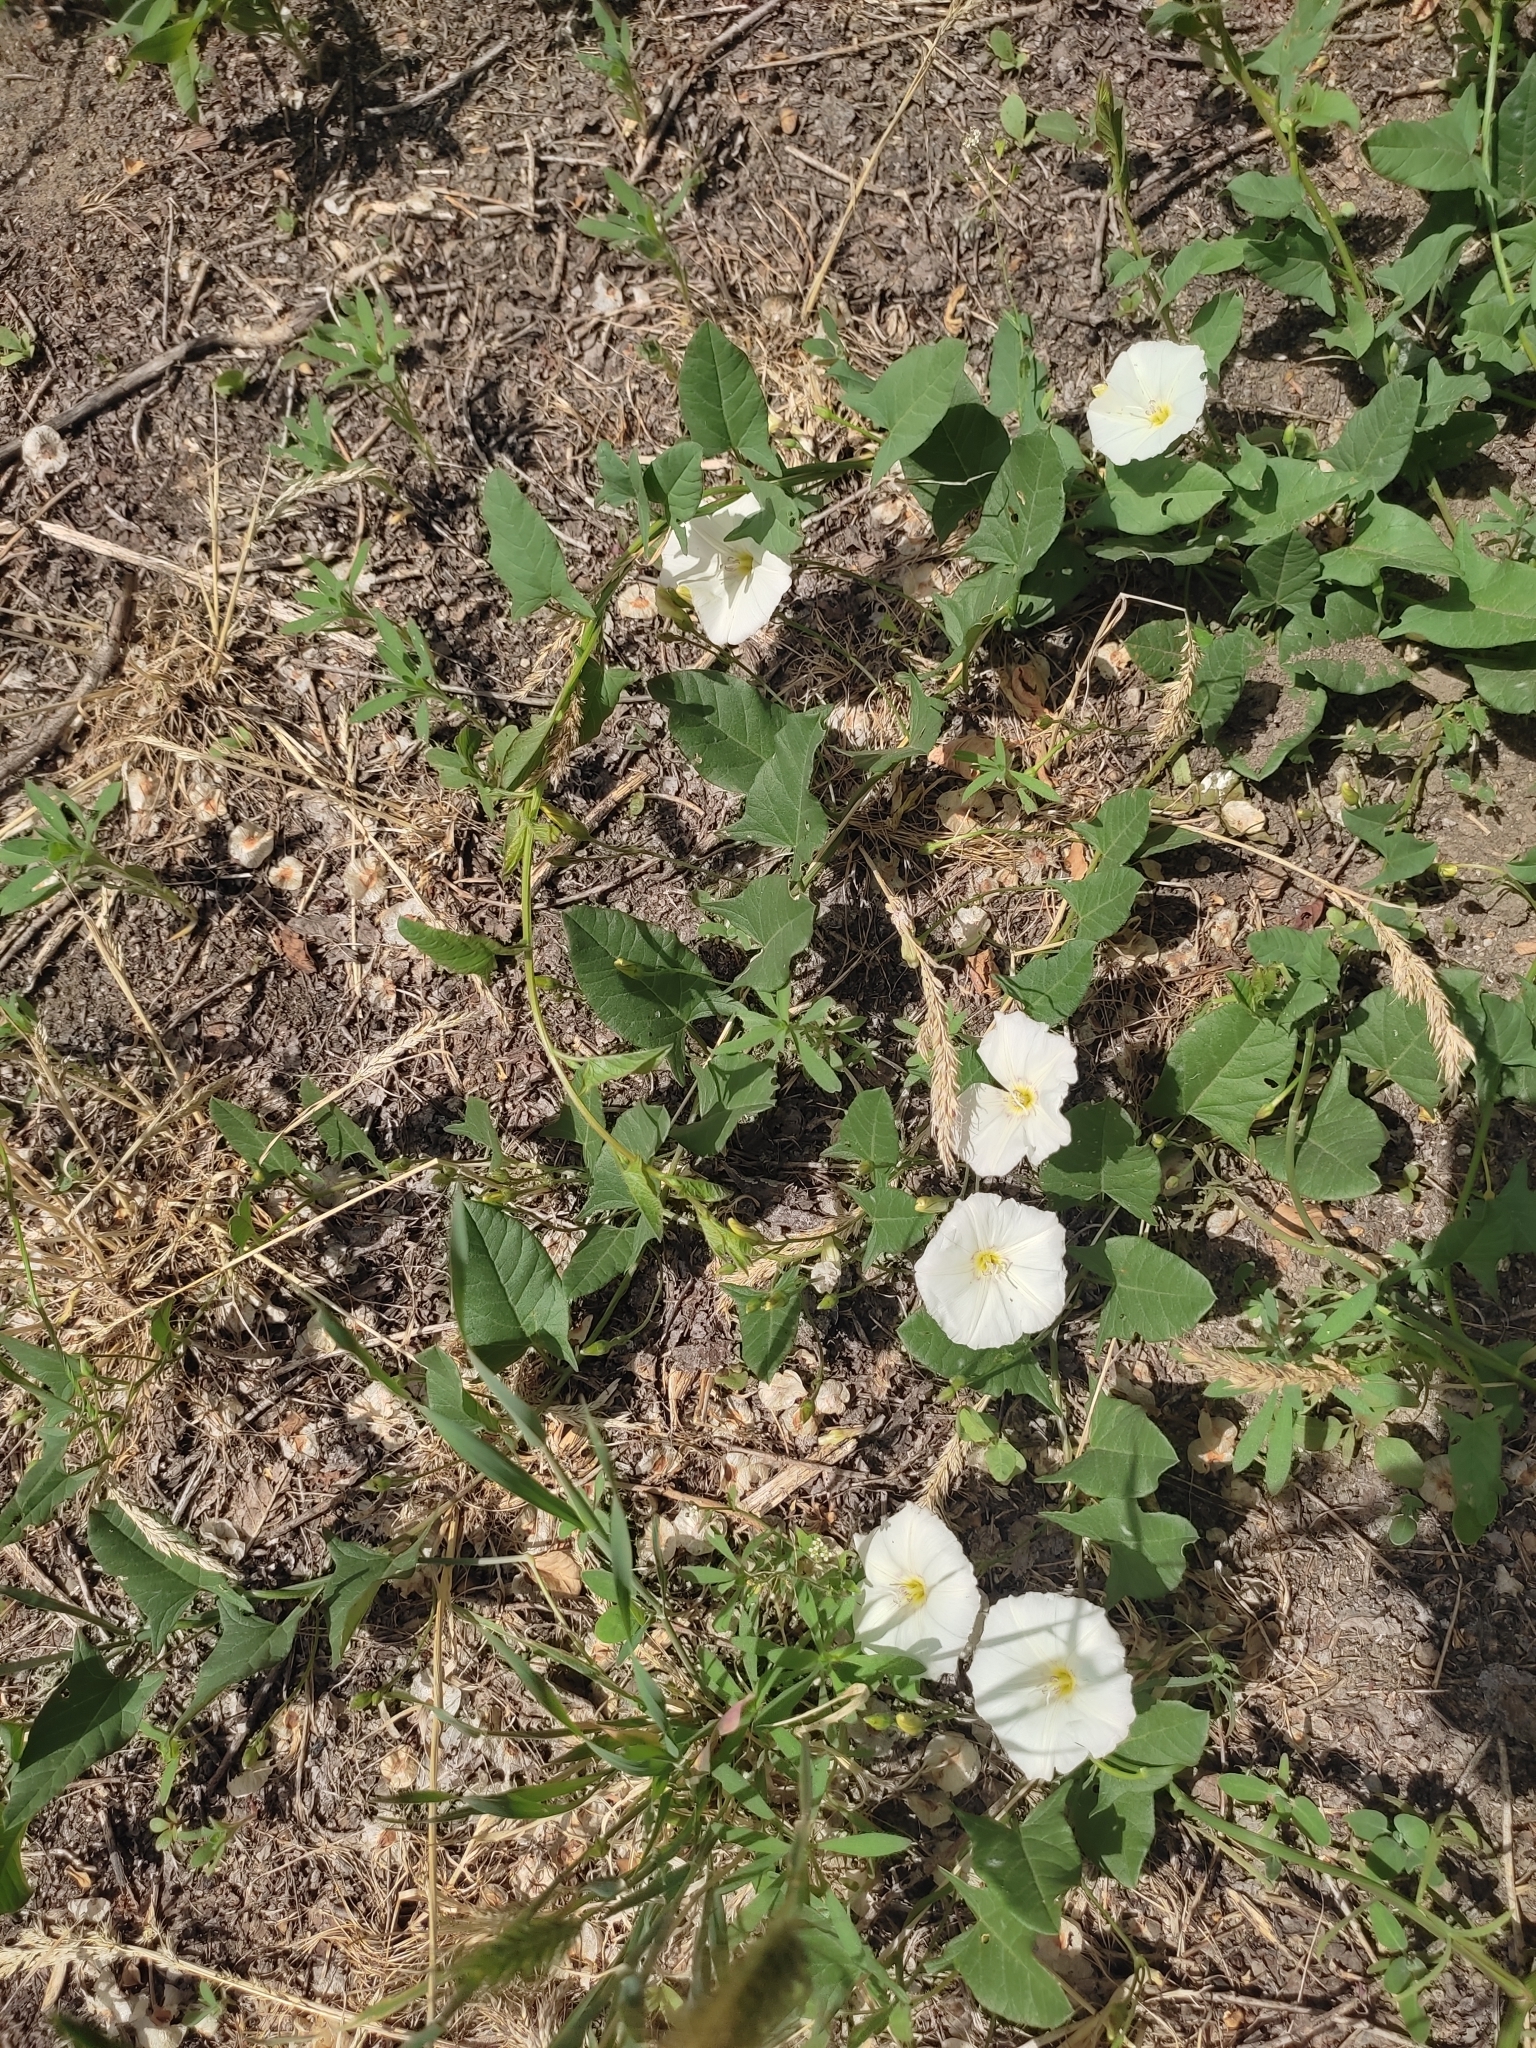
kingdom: Plantae
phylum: Tracheophyta
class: Magnoliopsida
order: Solanales
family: Convolvulaceae
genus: Convolvulus
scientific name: Convolvulus arvensis
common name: Field bindweed
